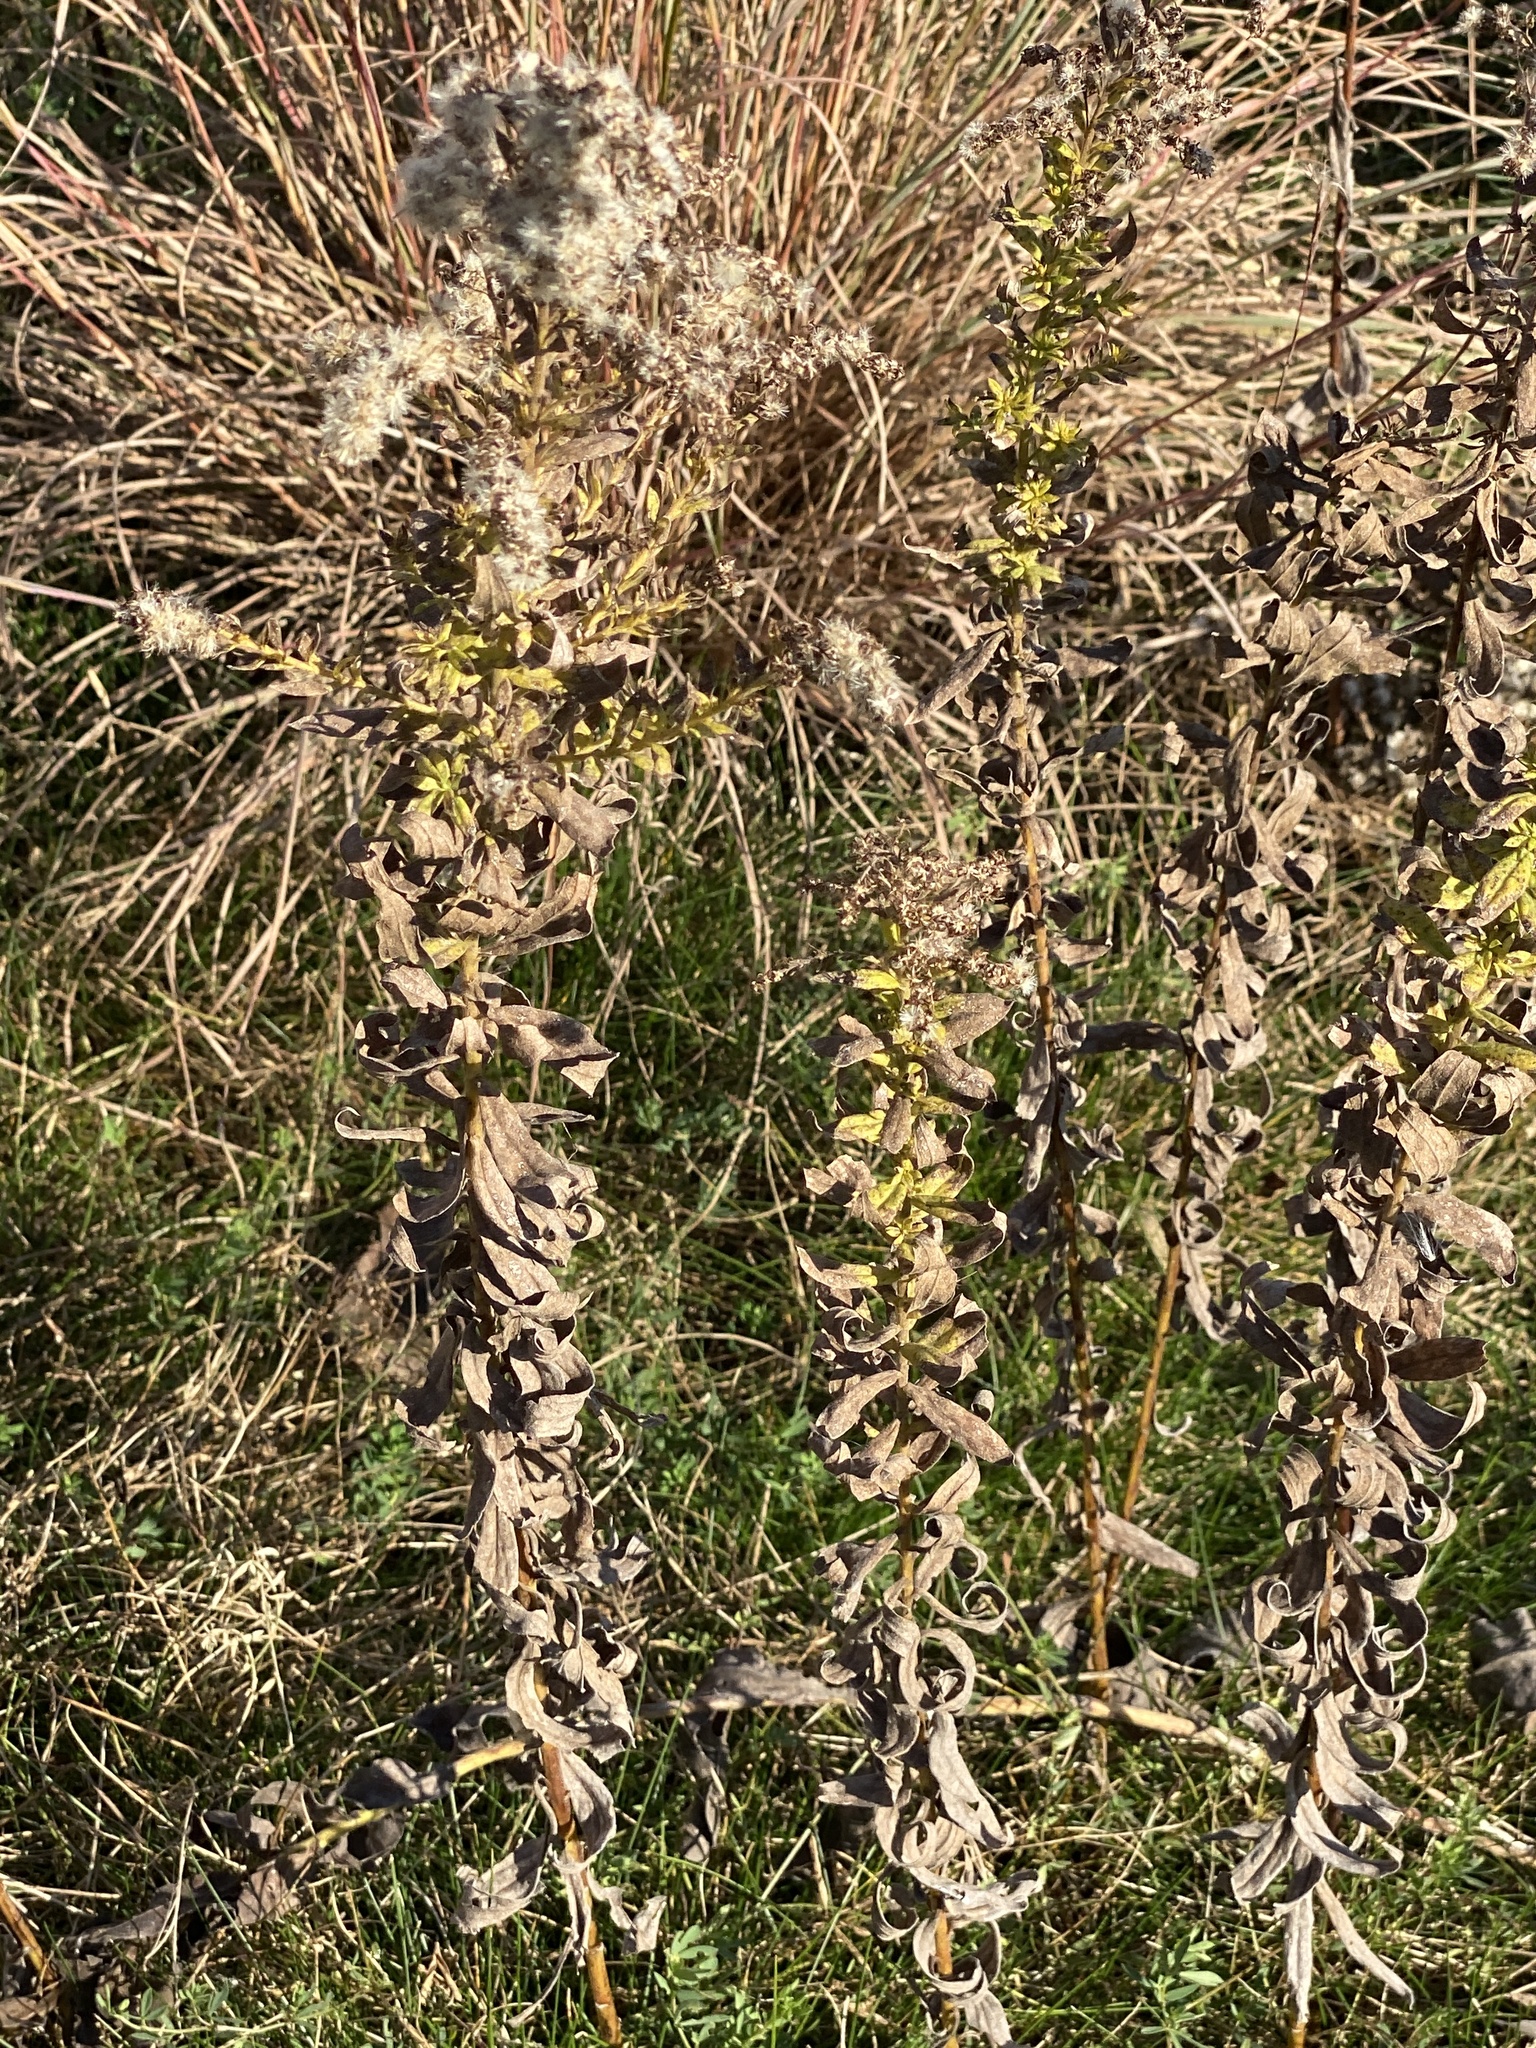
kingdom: Plantae
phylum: Tracheophyta
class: Magnoliopsida
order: Asterales
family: Asteraceae
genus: Solidago
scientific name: Solidago rigida
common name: Rigid goldenrod
